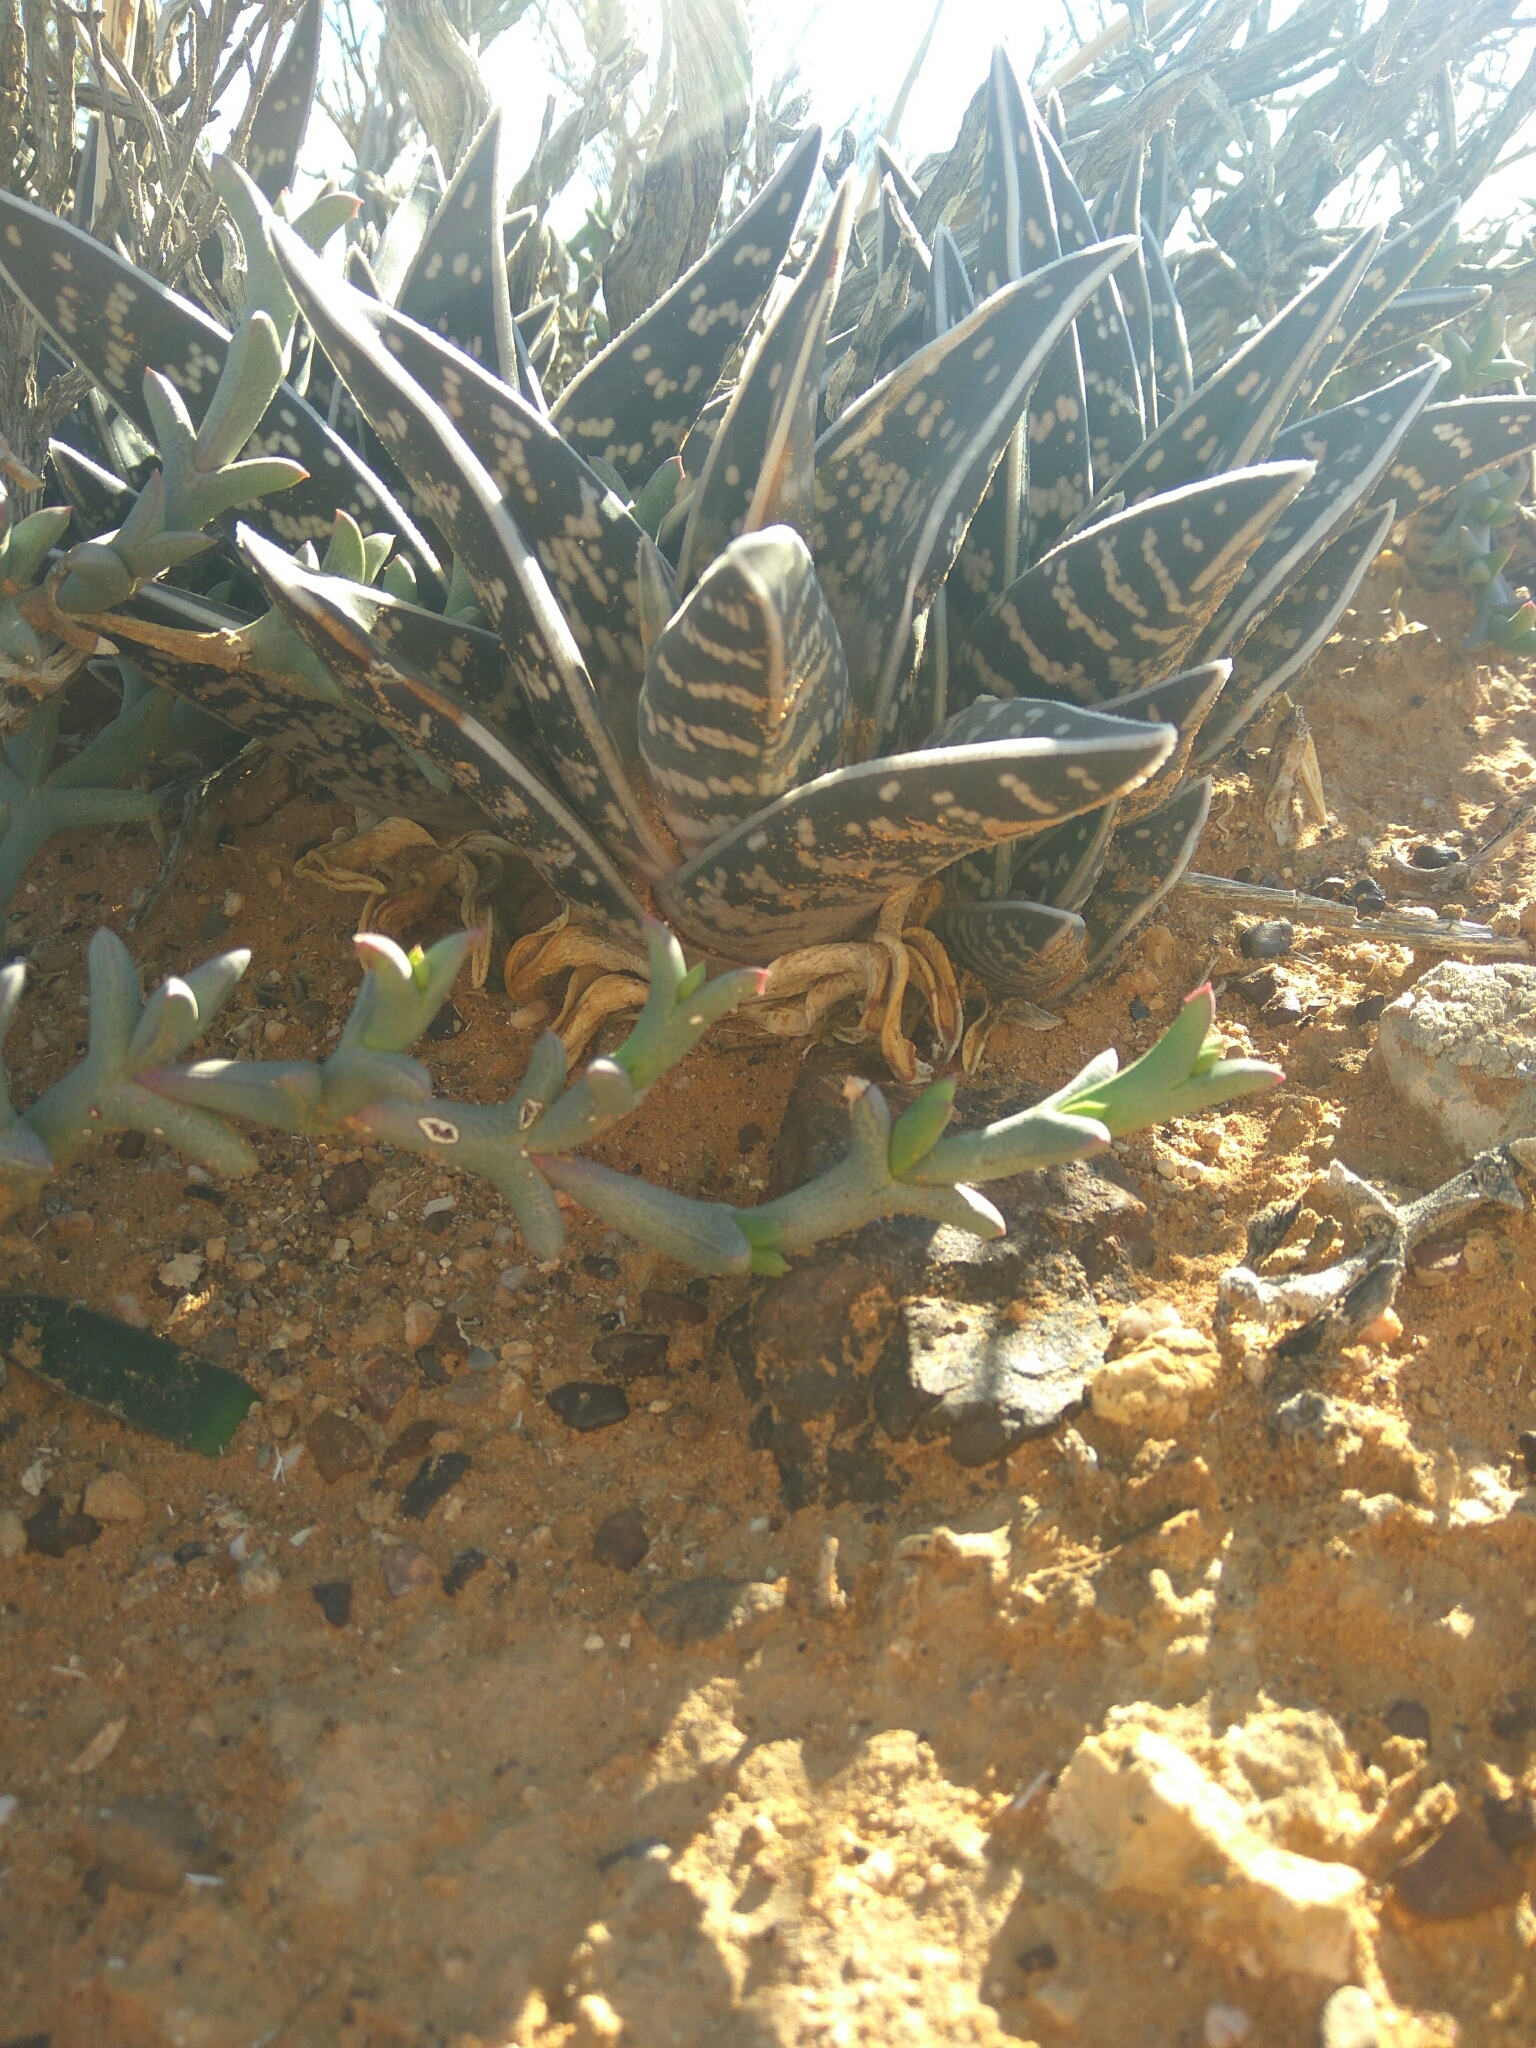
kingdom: Plantae
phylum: Tracheophyta
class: Liliopsida
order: Asparagales
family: Asphodelaceae
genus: Gonialoe
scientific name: Gonialoe variegata
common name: Aloe variegata
